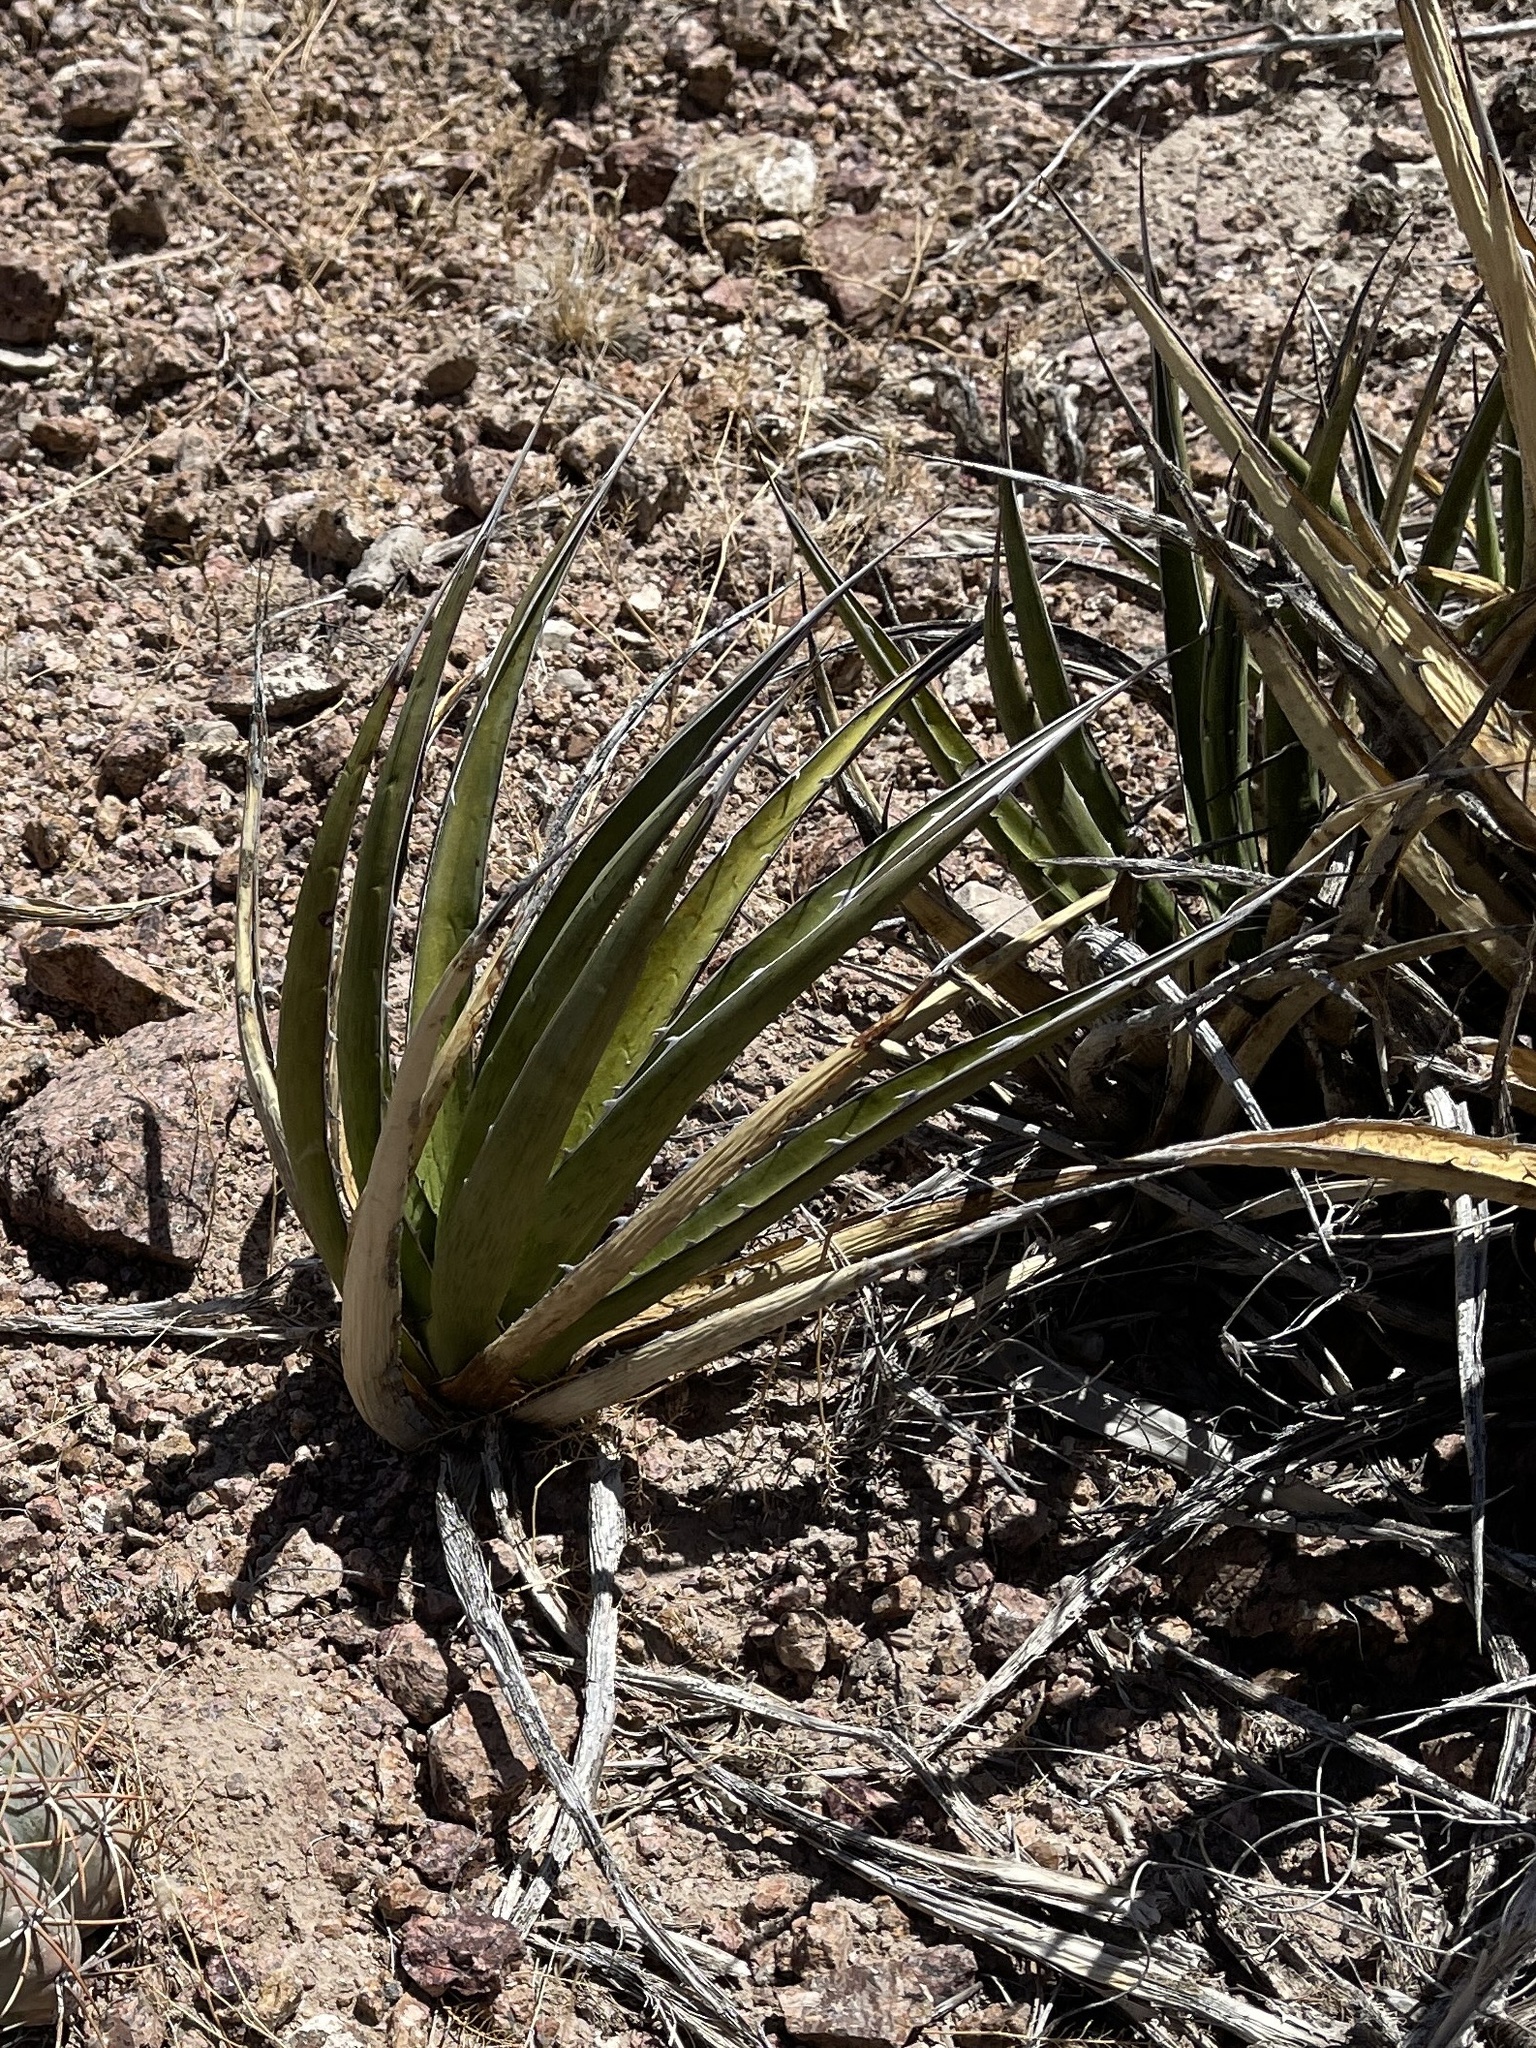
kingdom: Plantae
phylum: Tracheophyta
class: Liliopsida
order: Asparagales
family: Asparagaceae
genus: Agave
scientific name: Agave lechuguilla
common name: Lecheguilla agave
